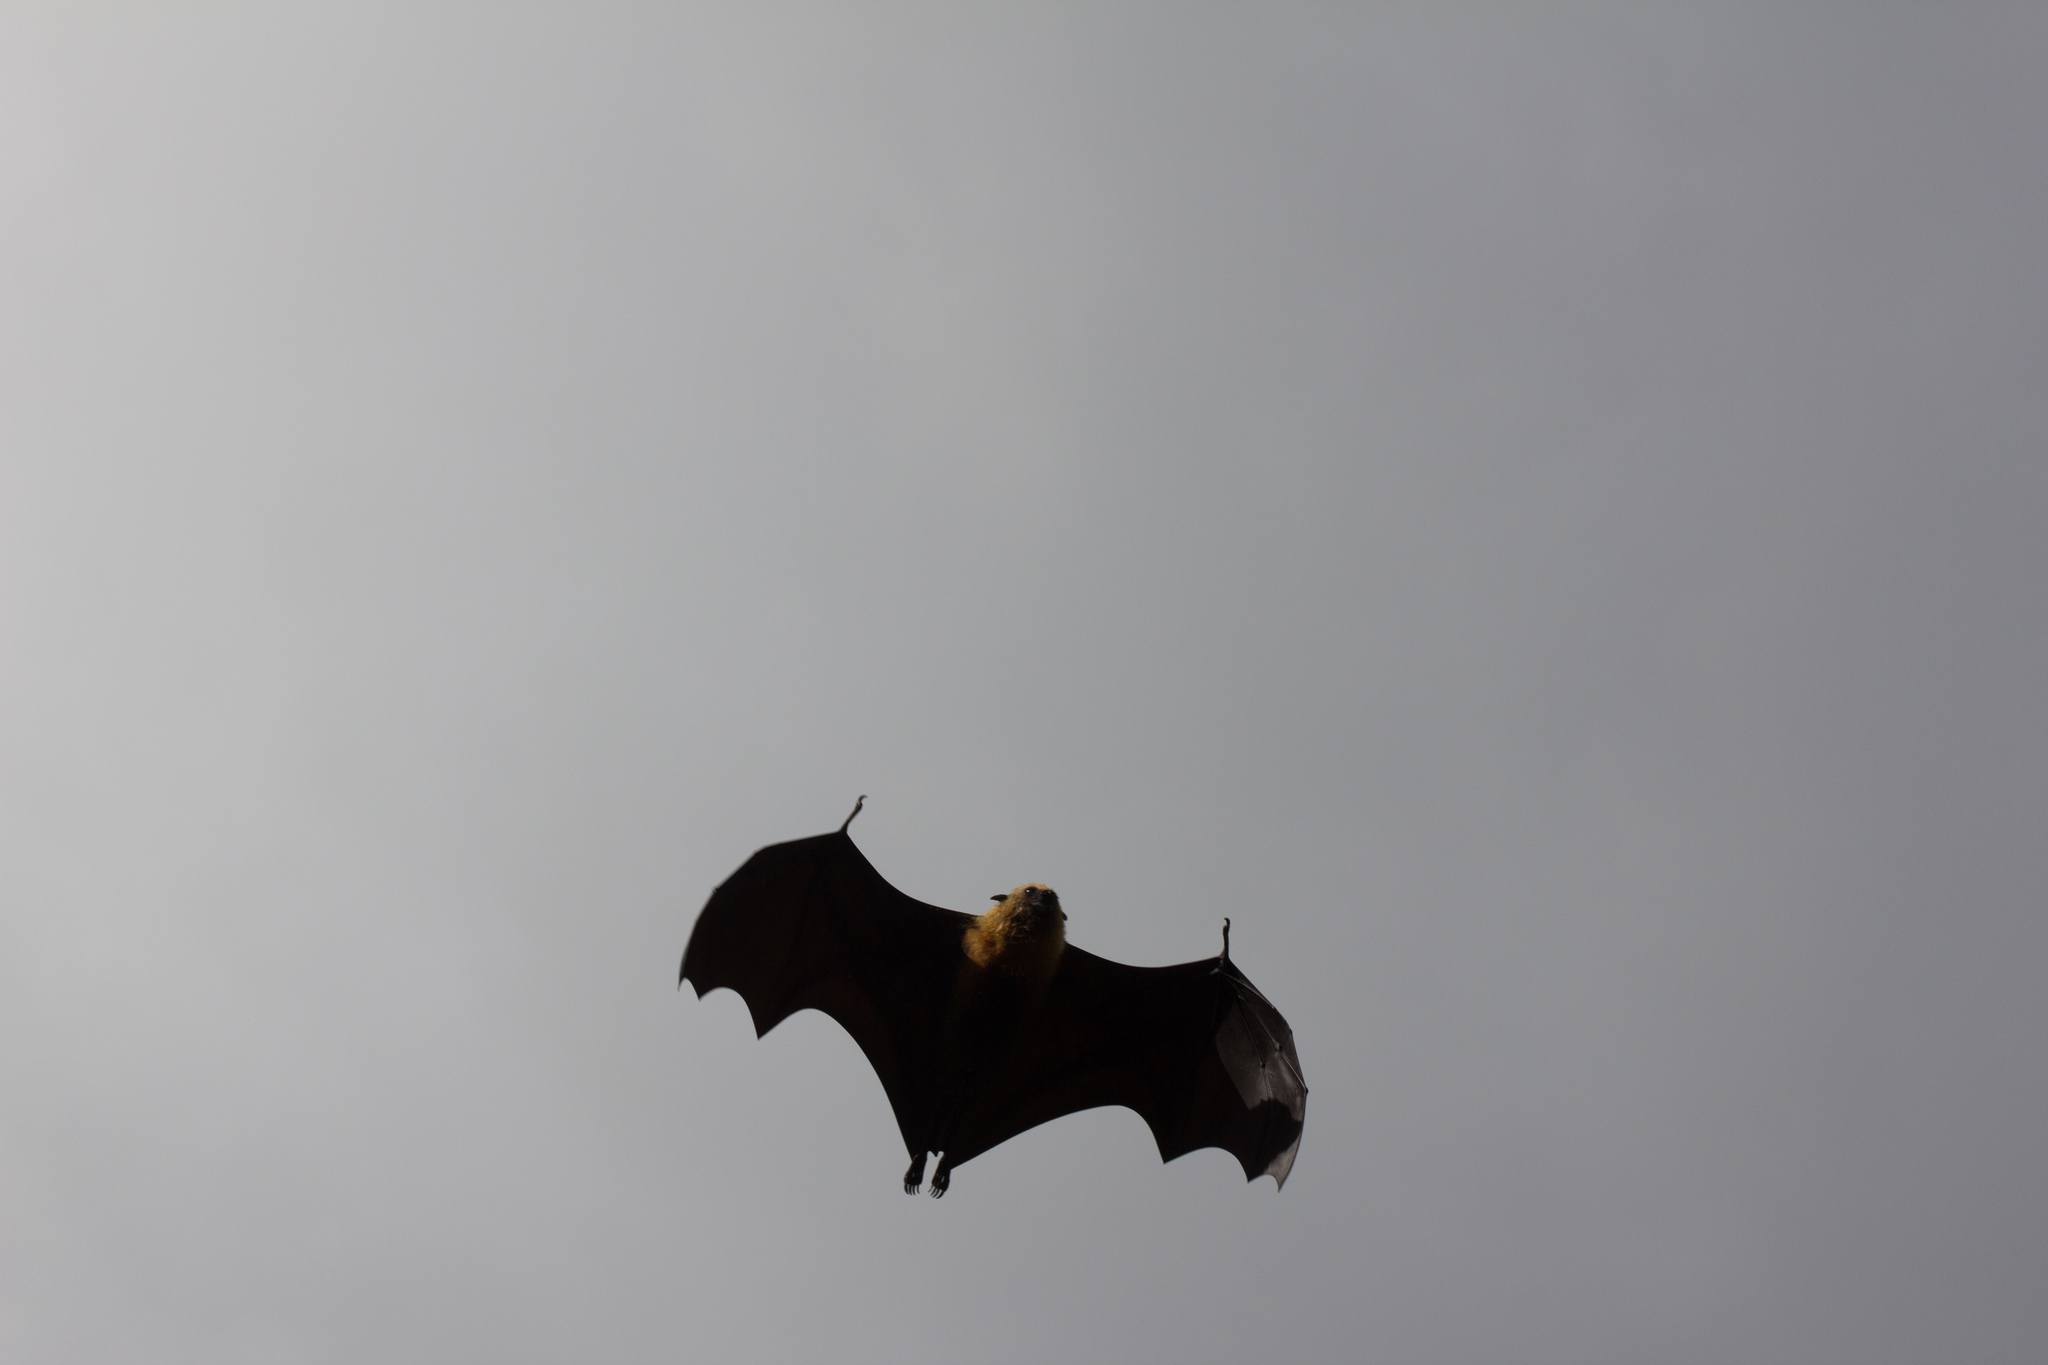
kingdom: Animalia
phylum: Chordata
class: Mammalia
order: Chiroptera
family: Pteropodidae
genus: Pteropus
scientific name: Pteropus seychellensis
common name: Seychelles flying fox
